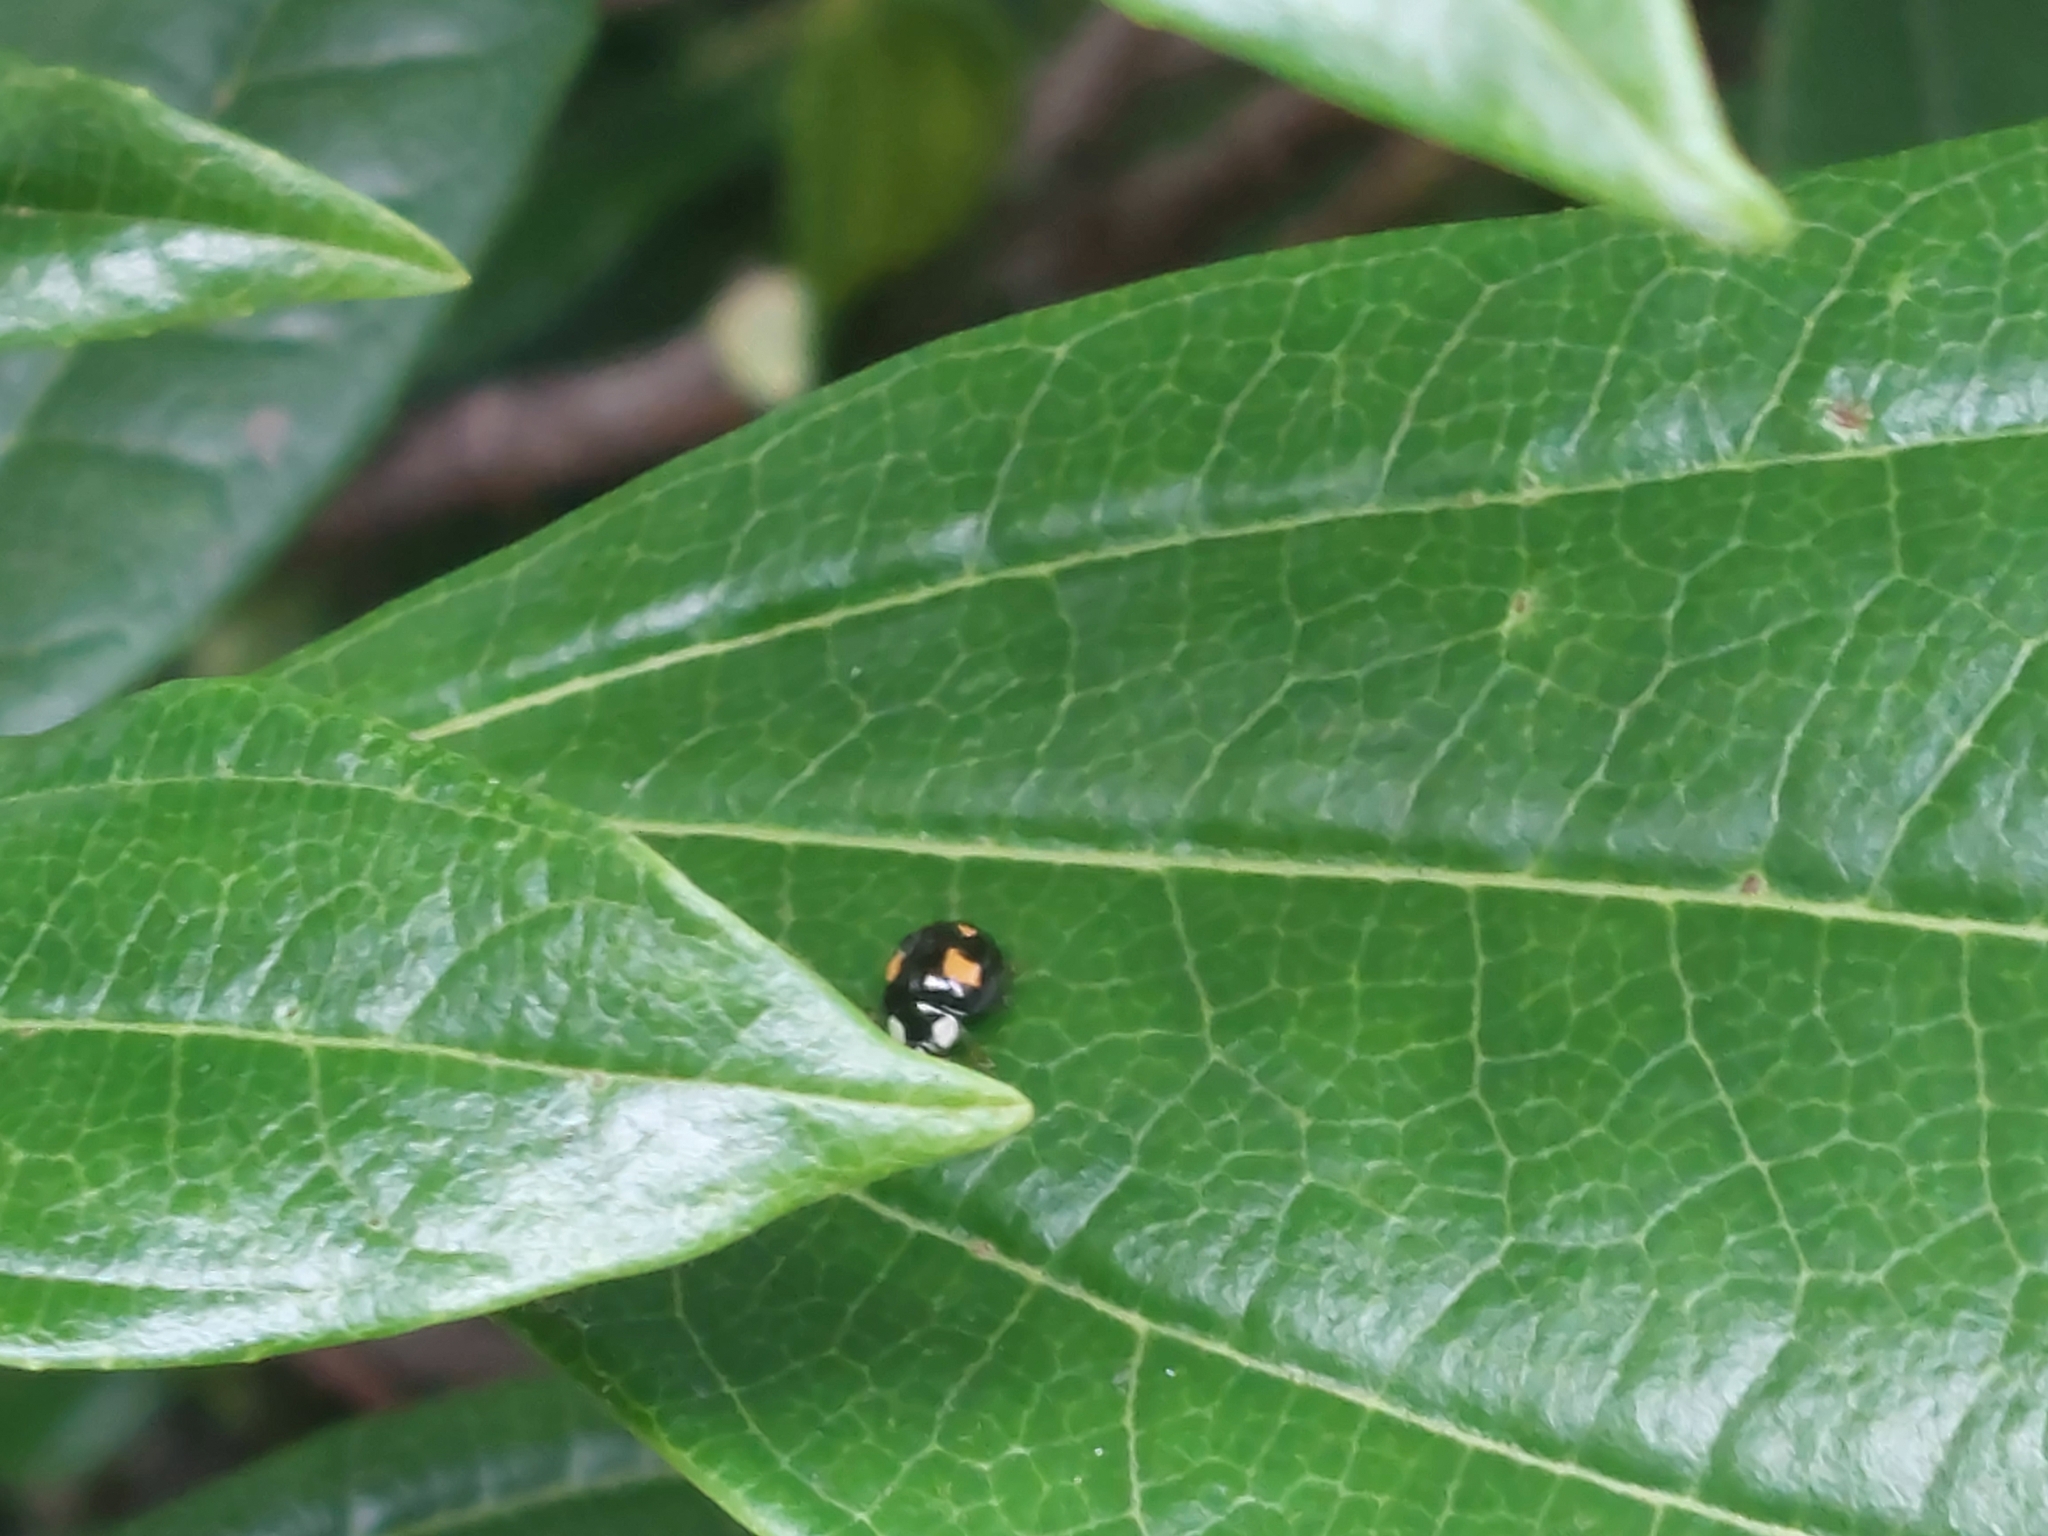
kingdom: Animalia
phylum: Arthropoda
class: Insecta
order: Coleoptera
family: Coccinellidae
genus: Harmonia
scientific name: Harmonia axyridis
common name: Harlequin ladybird
